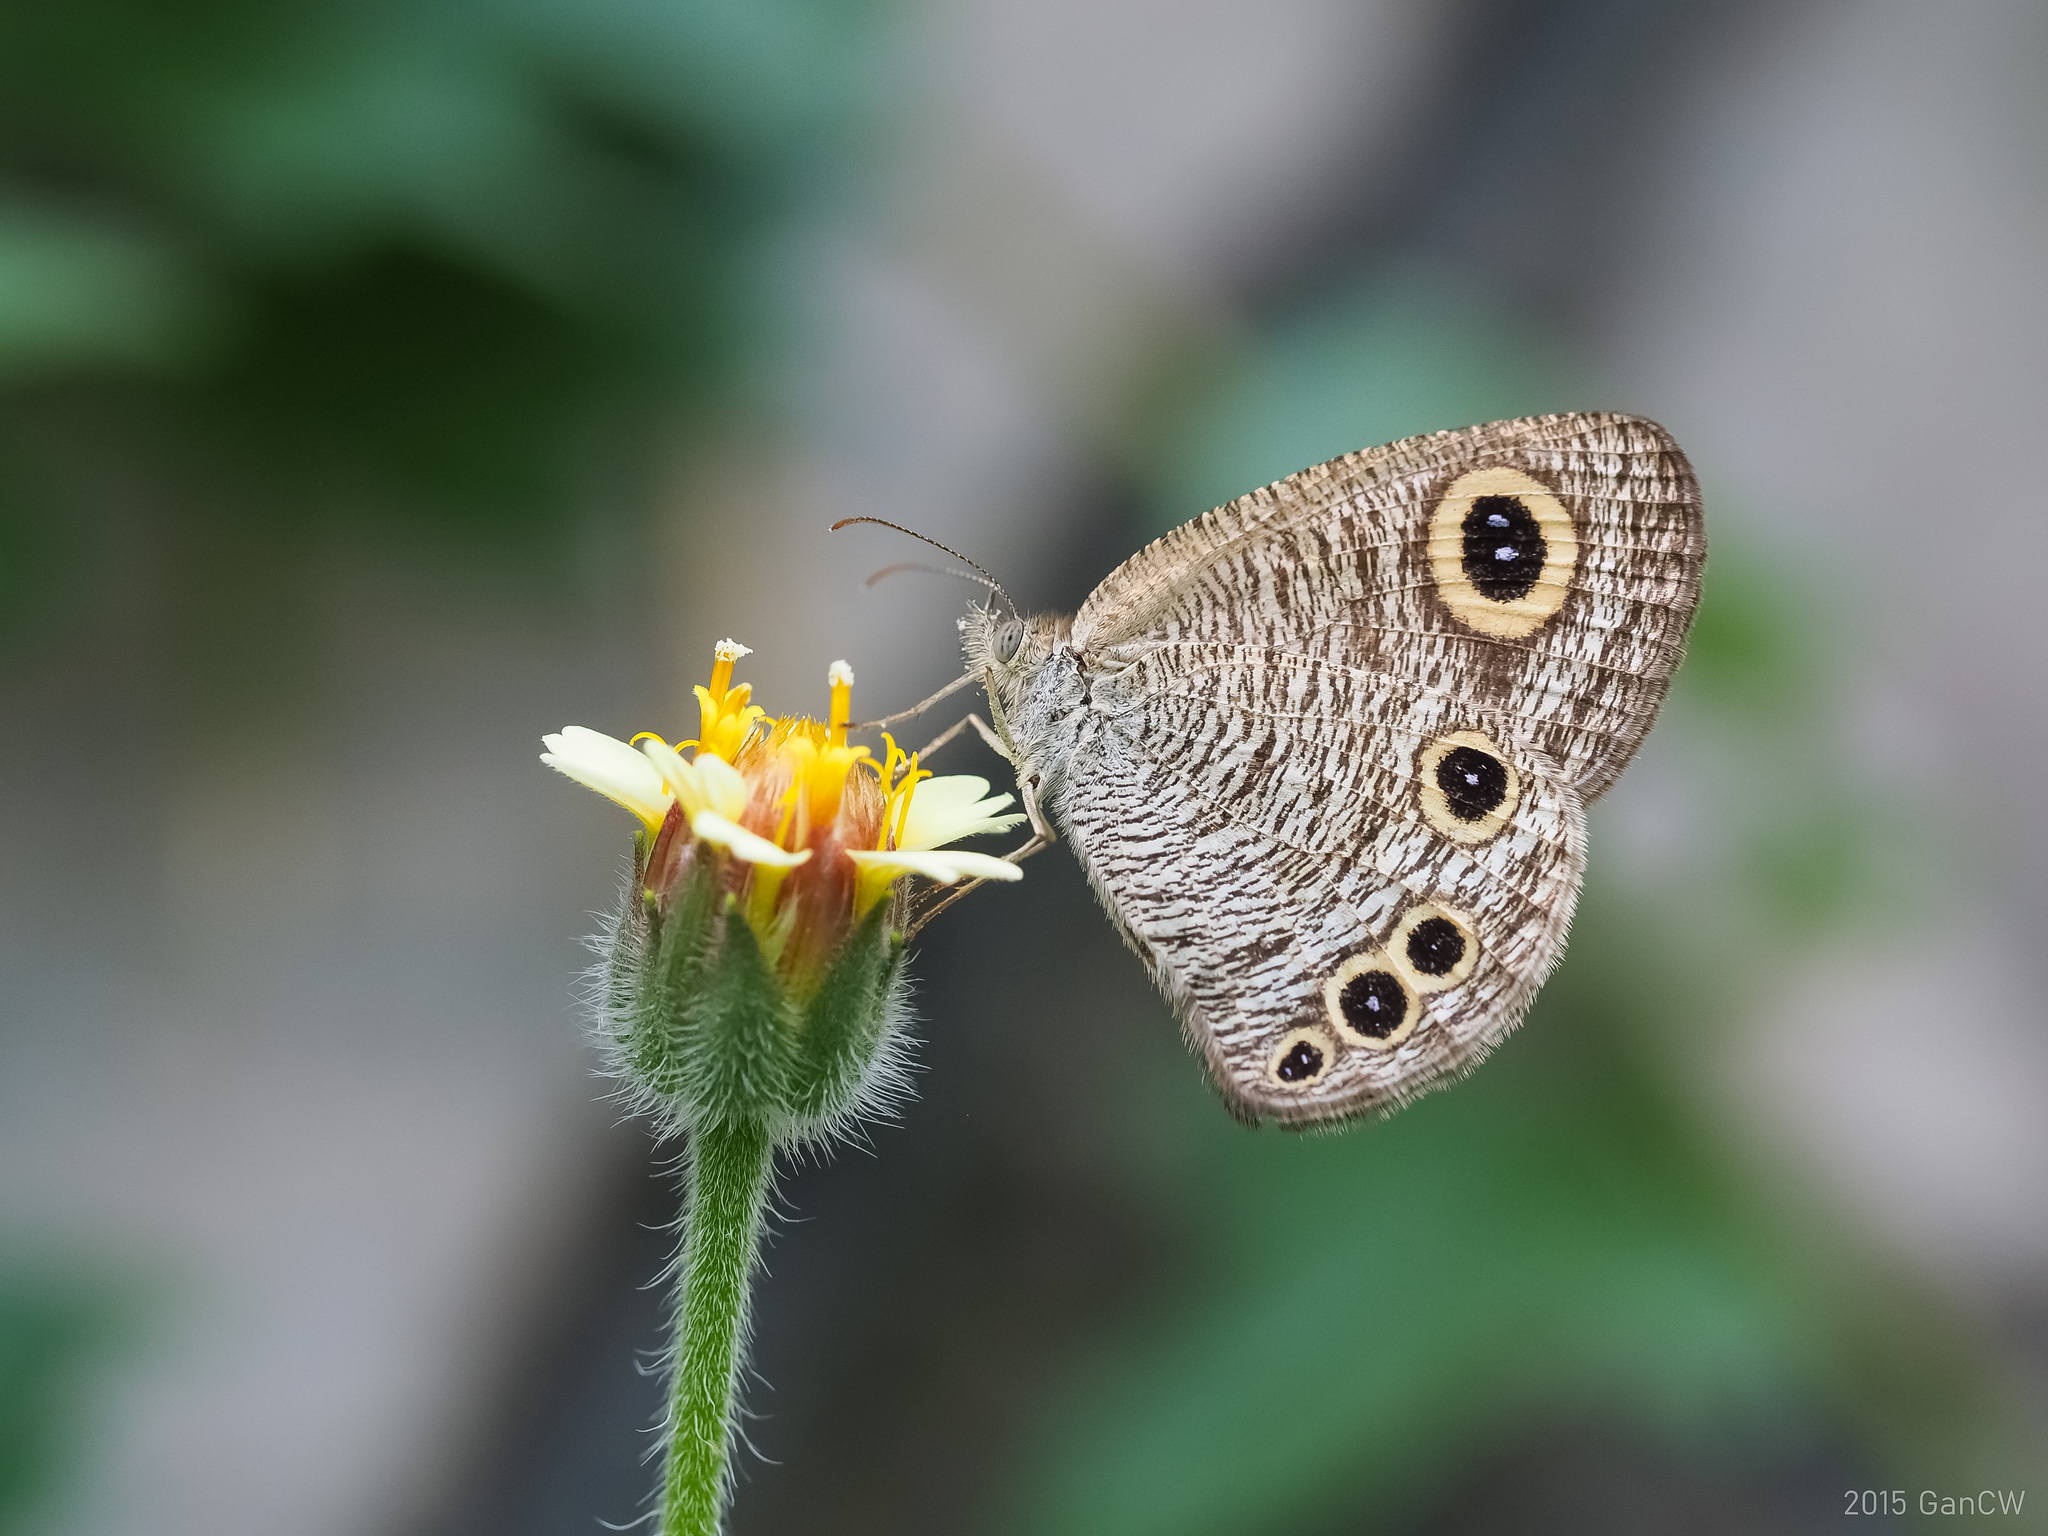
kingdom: Animalia
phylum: Arthropoda
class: Insecta
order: Lepidoptera
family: Nymphalidae
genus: Ypthima
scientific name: Ypthima huebneri
